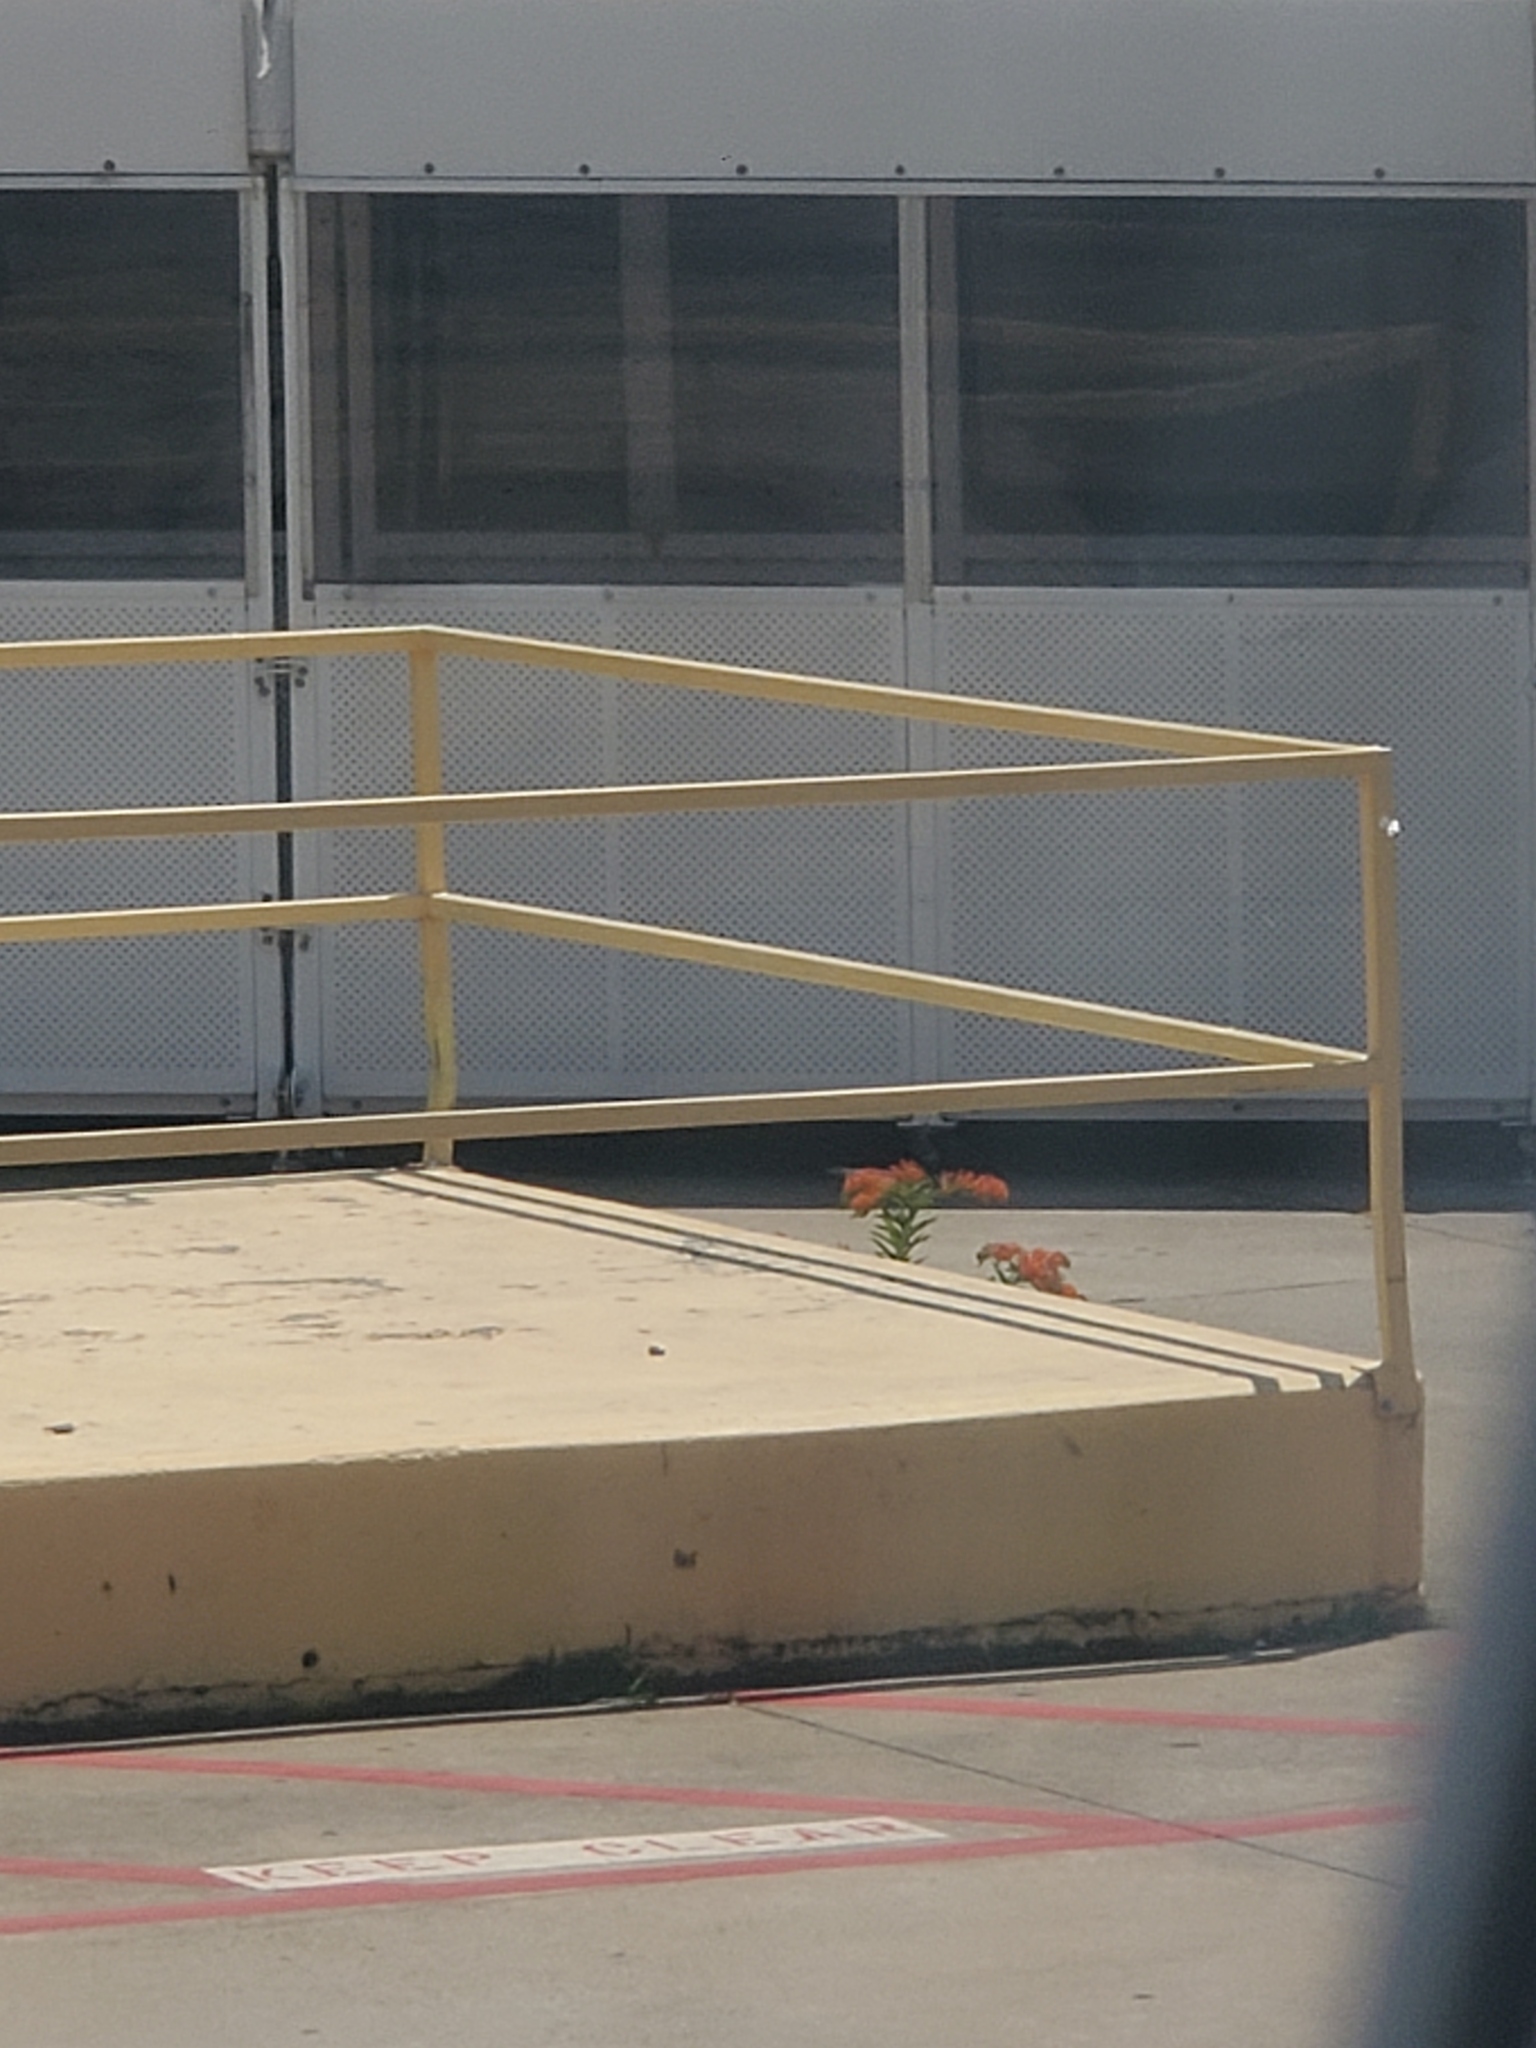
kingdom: Plantae
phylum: Tracheophyta
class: Magnoliopsida
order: Gentianales
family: Apocynaceae
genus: Asclepias
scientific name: Asclepias tuberosa
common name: Butterfly milkweed
